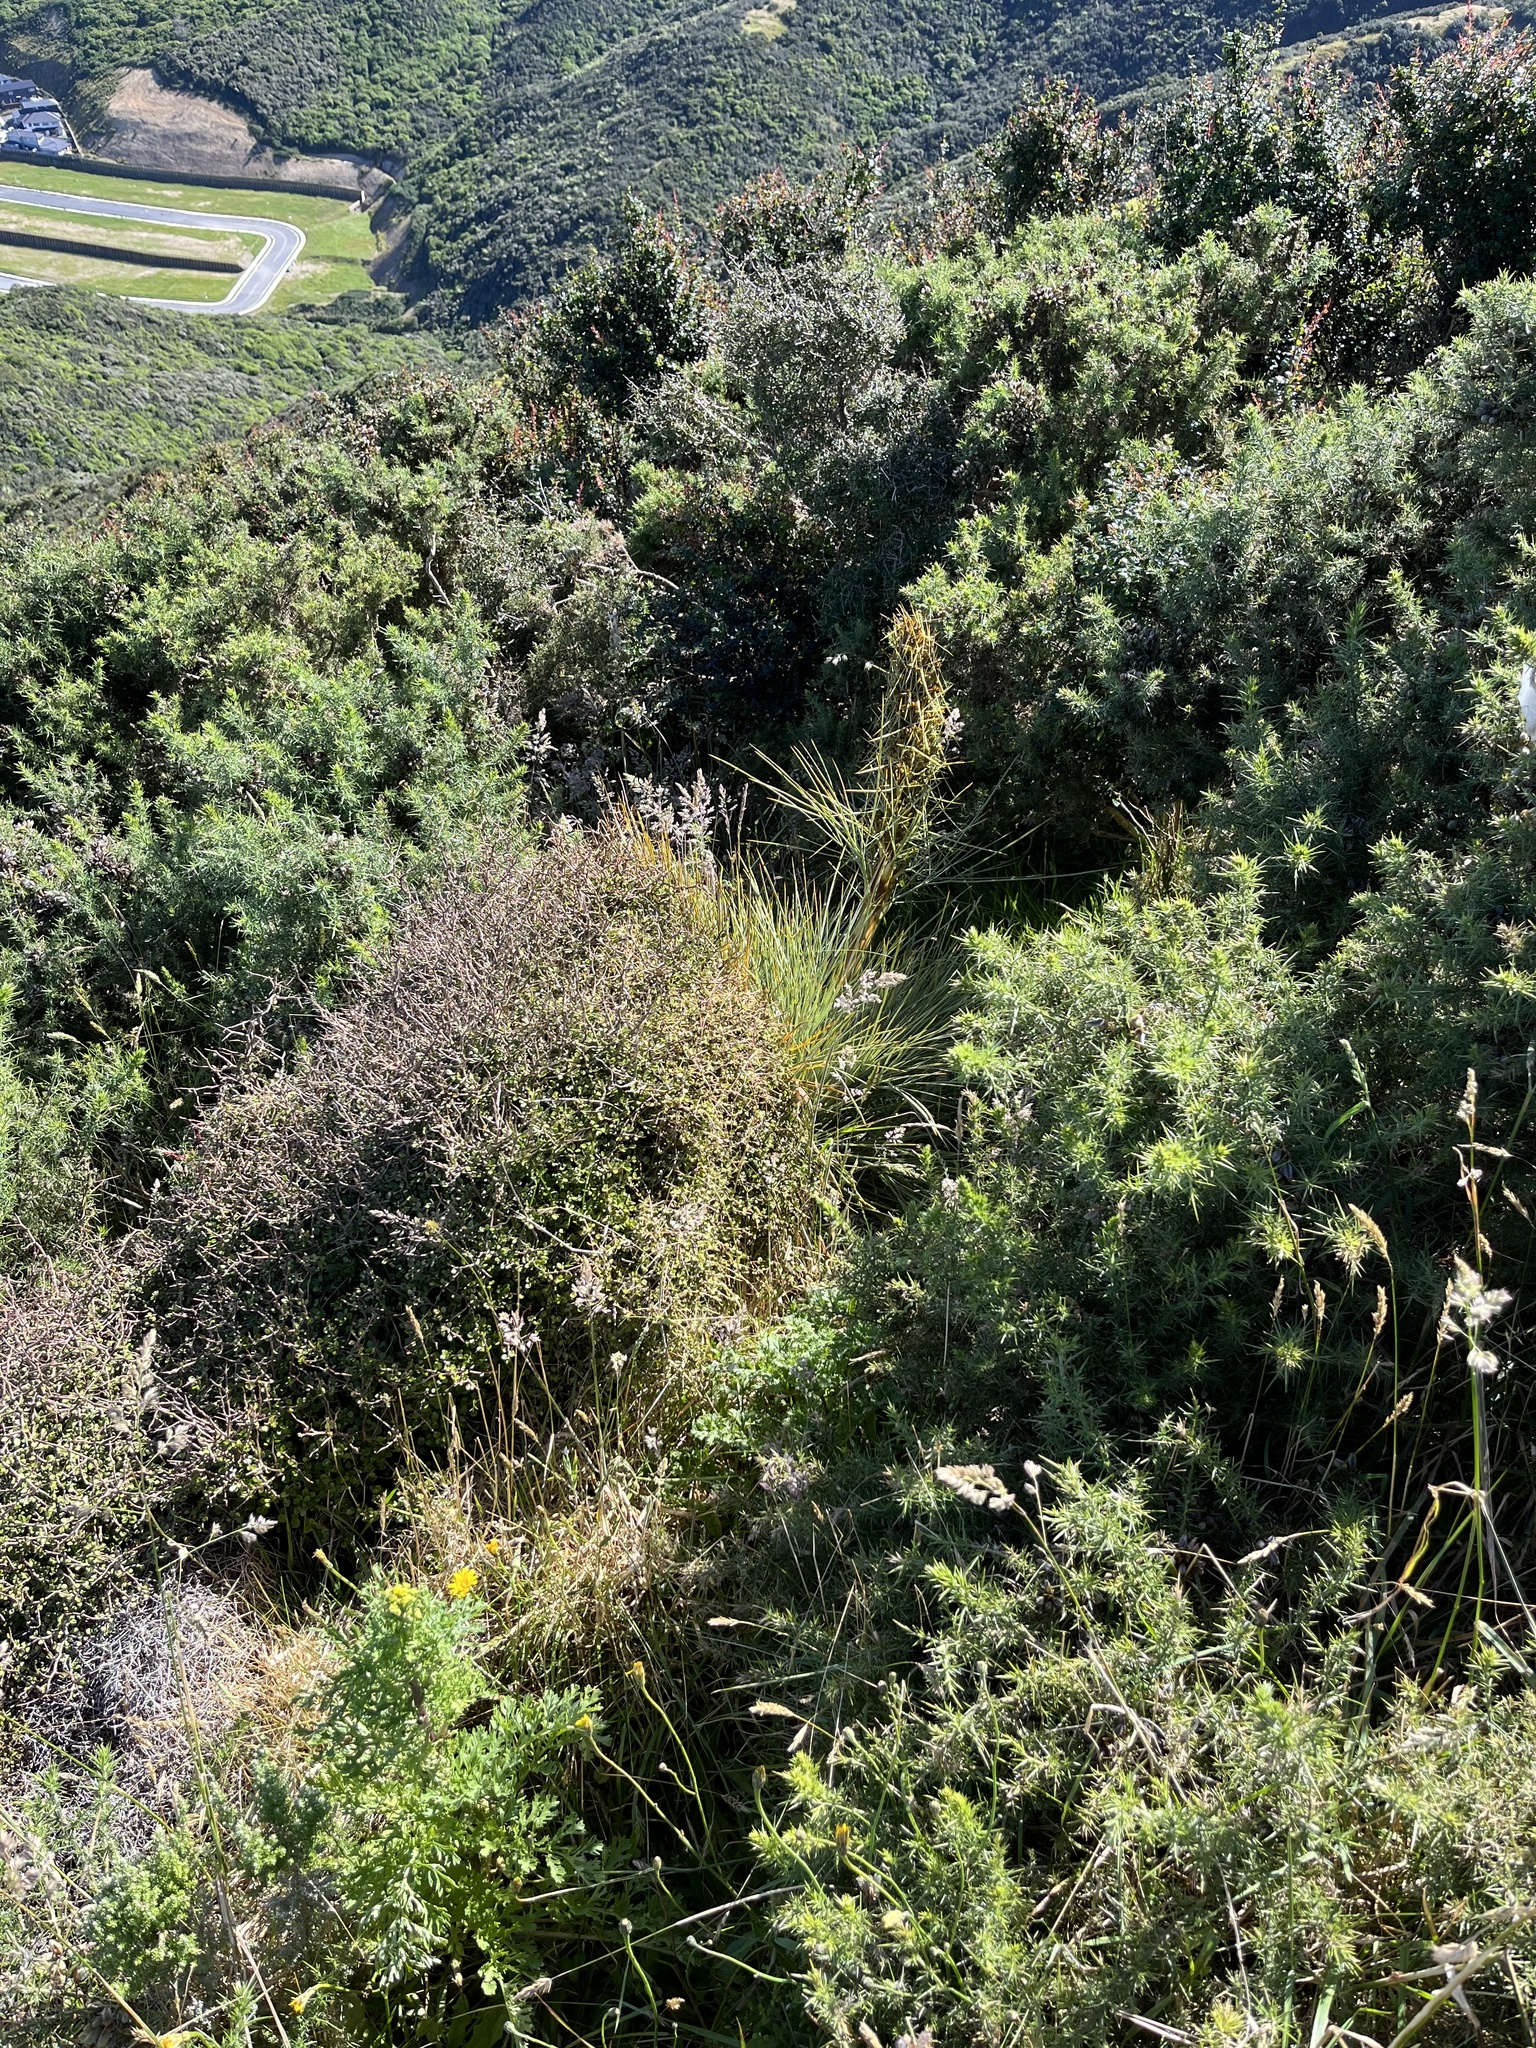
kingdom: Plantae
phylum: Tracheophyta
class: Magnoliopsida
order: Apiales
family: Apiaceae
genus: Aciphylla
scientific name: Aciphylla squarrosa
